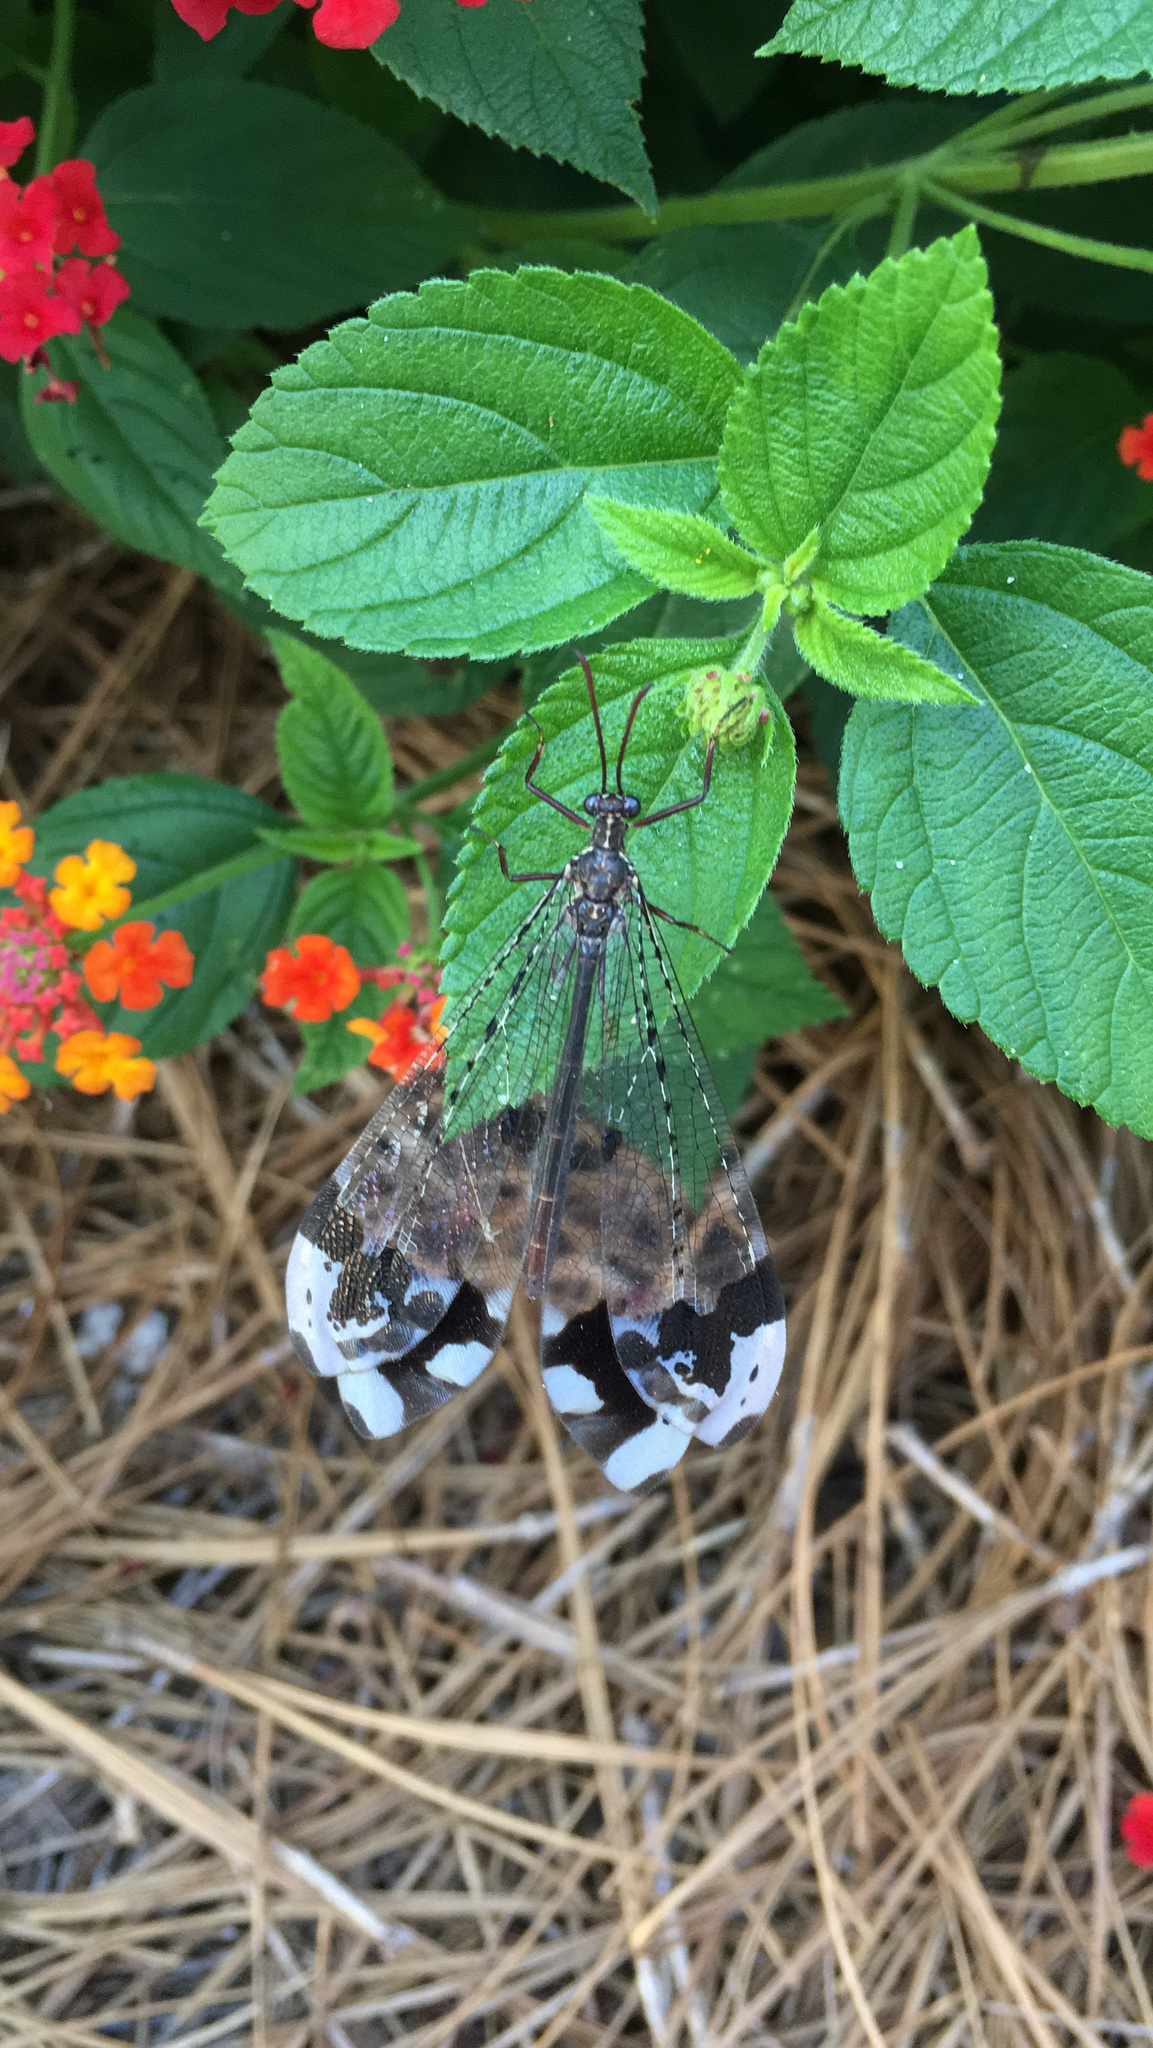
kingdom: Animalia
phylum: Arthropoda
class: Insecta
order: Neuroptera
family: Myrmeleontidae
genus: Glenurus
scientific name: Glenurus gratus
